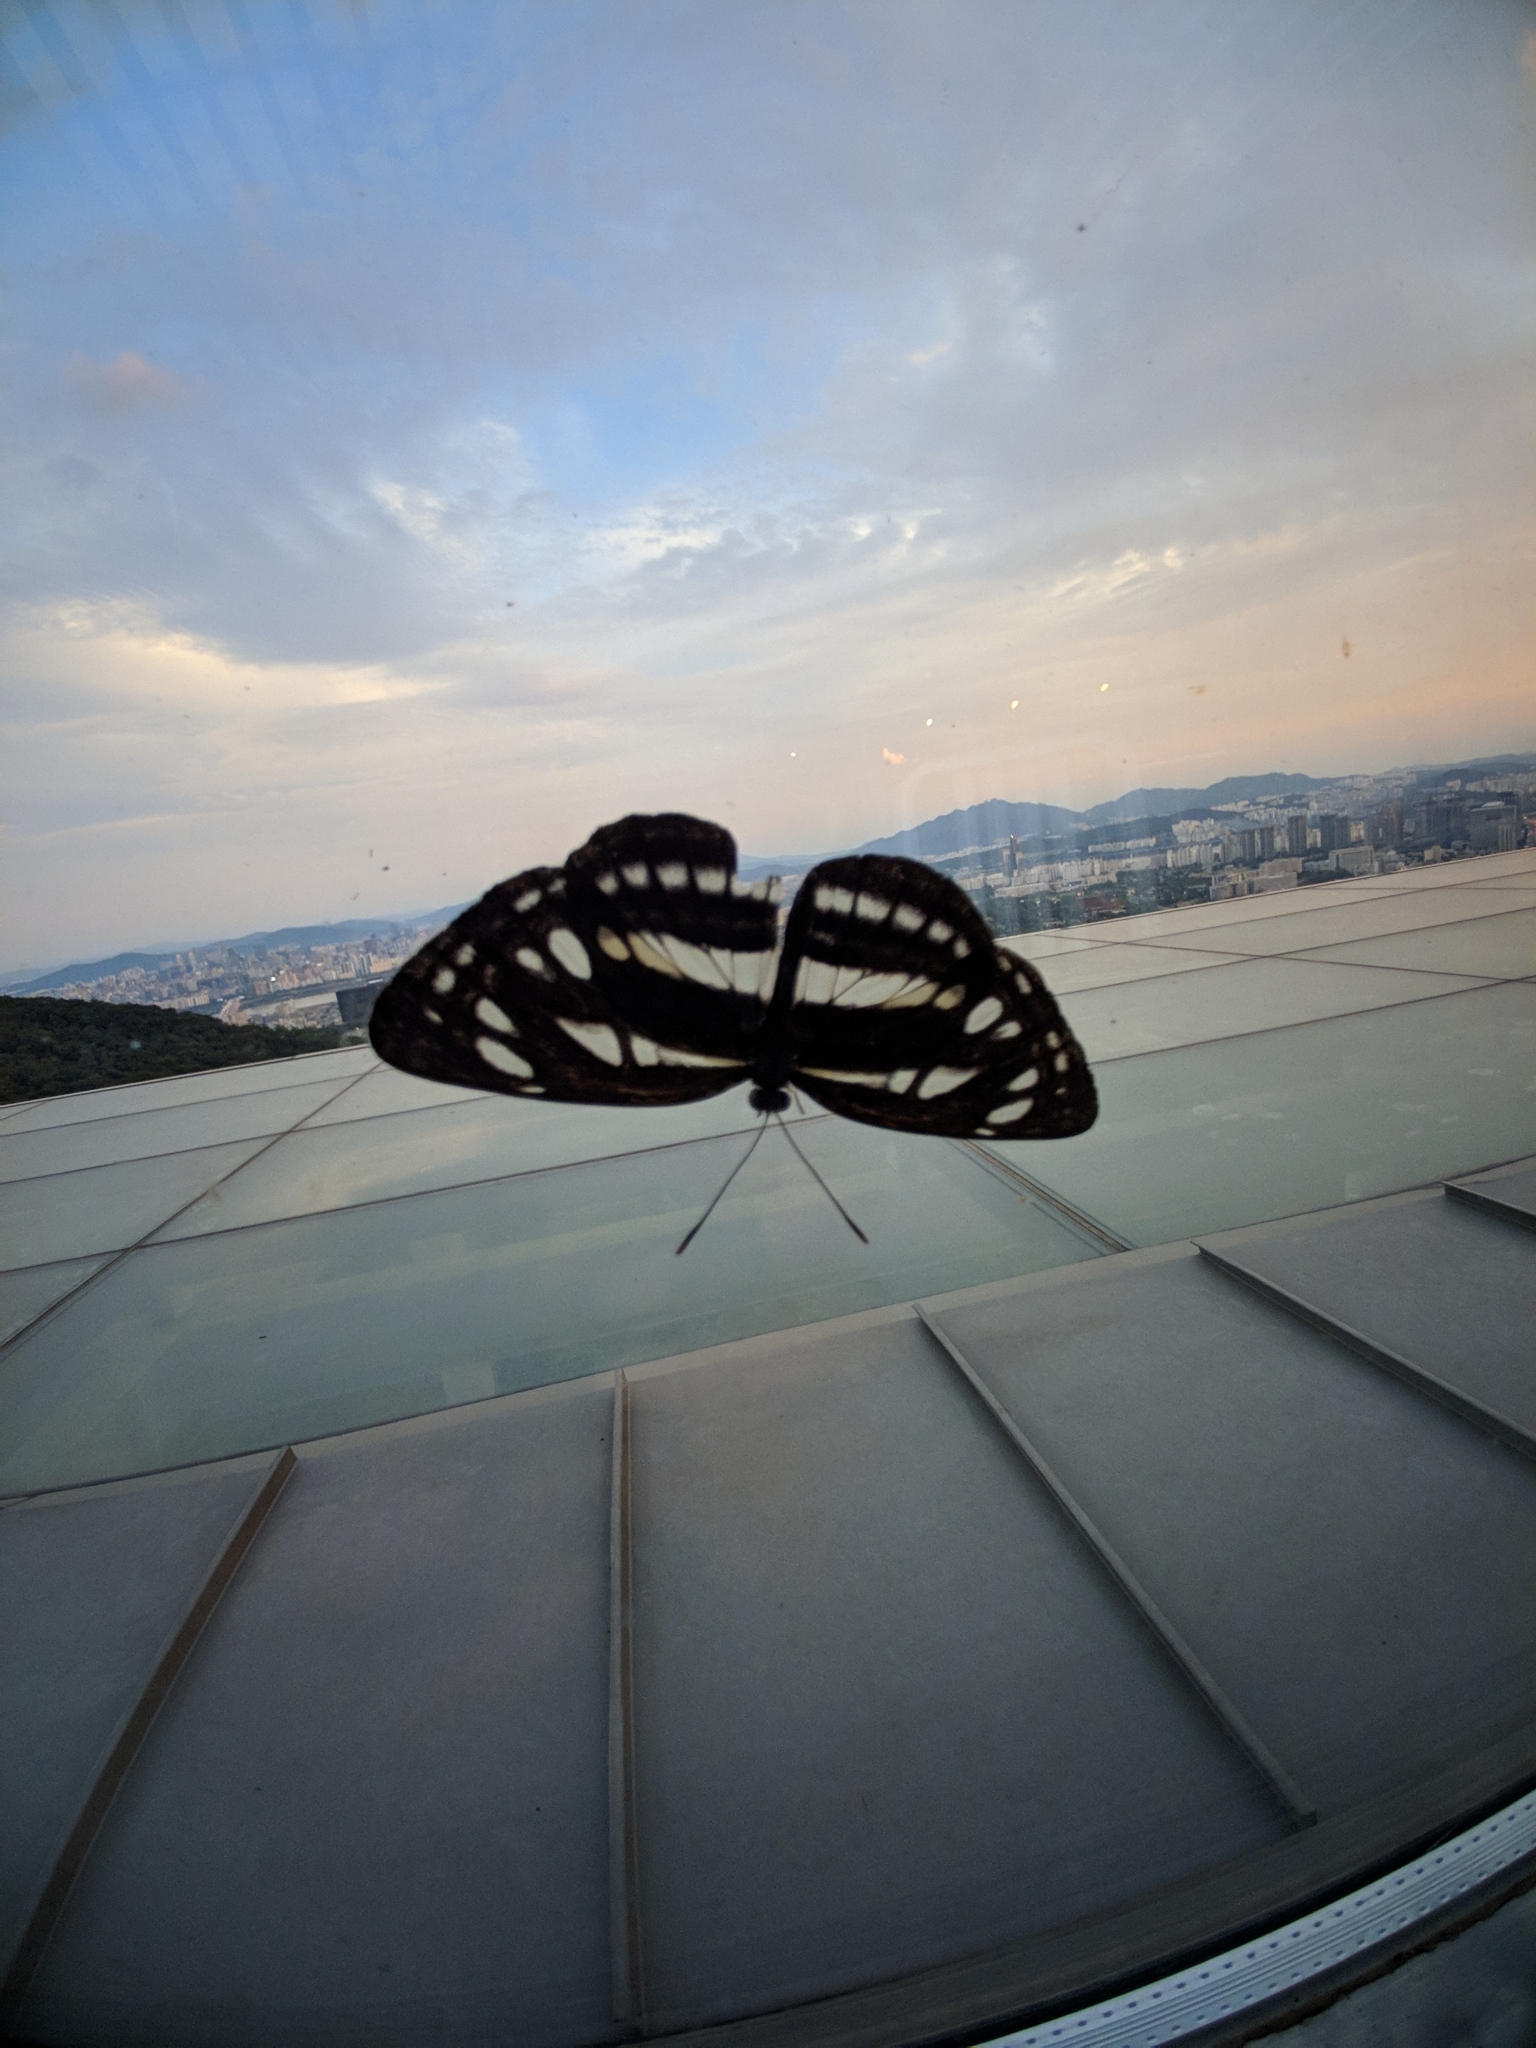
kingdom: Animalia
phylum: Arthropoda
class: Insecta
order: Lepidoptera
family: Nymphalidae
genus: Neptis
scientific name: Neptis sappho
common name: Common glider
